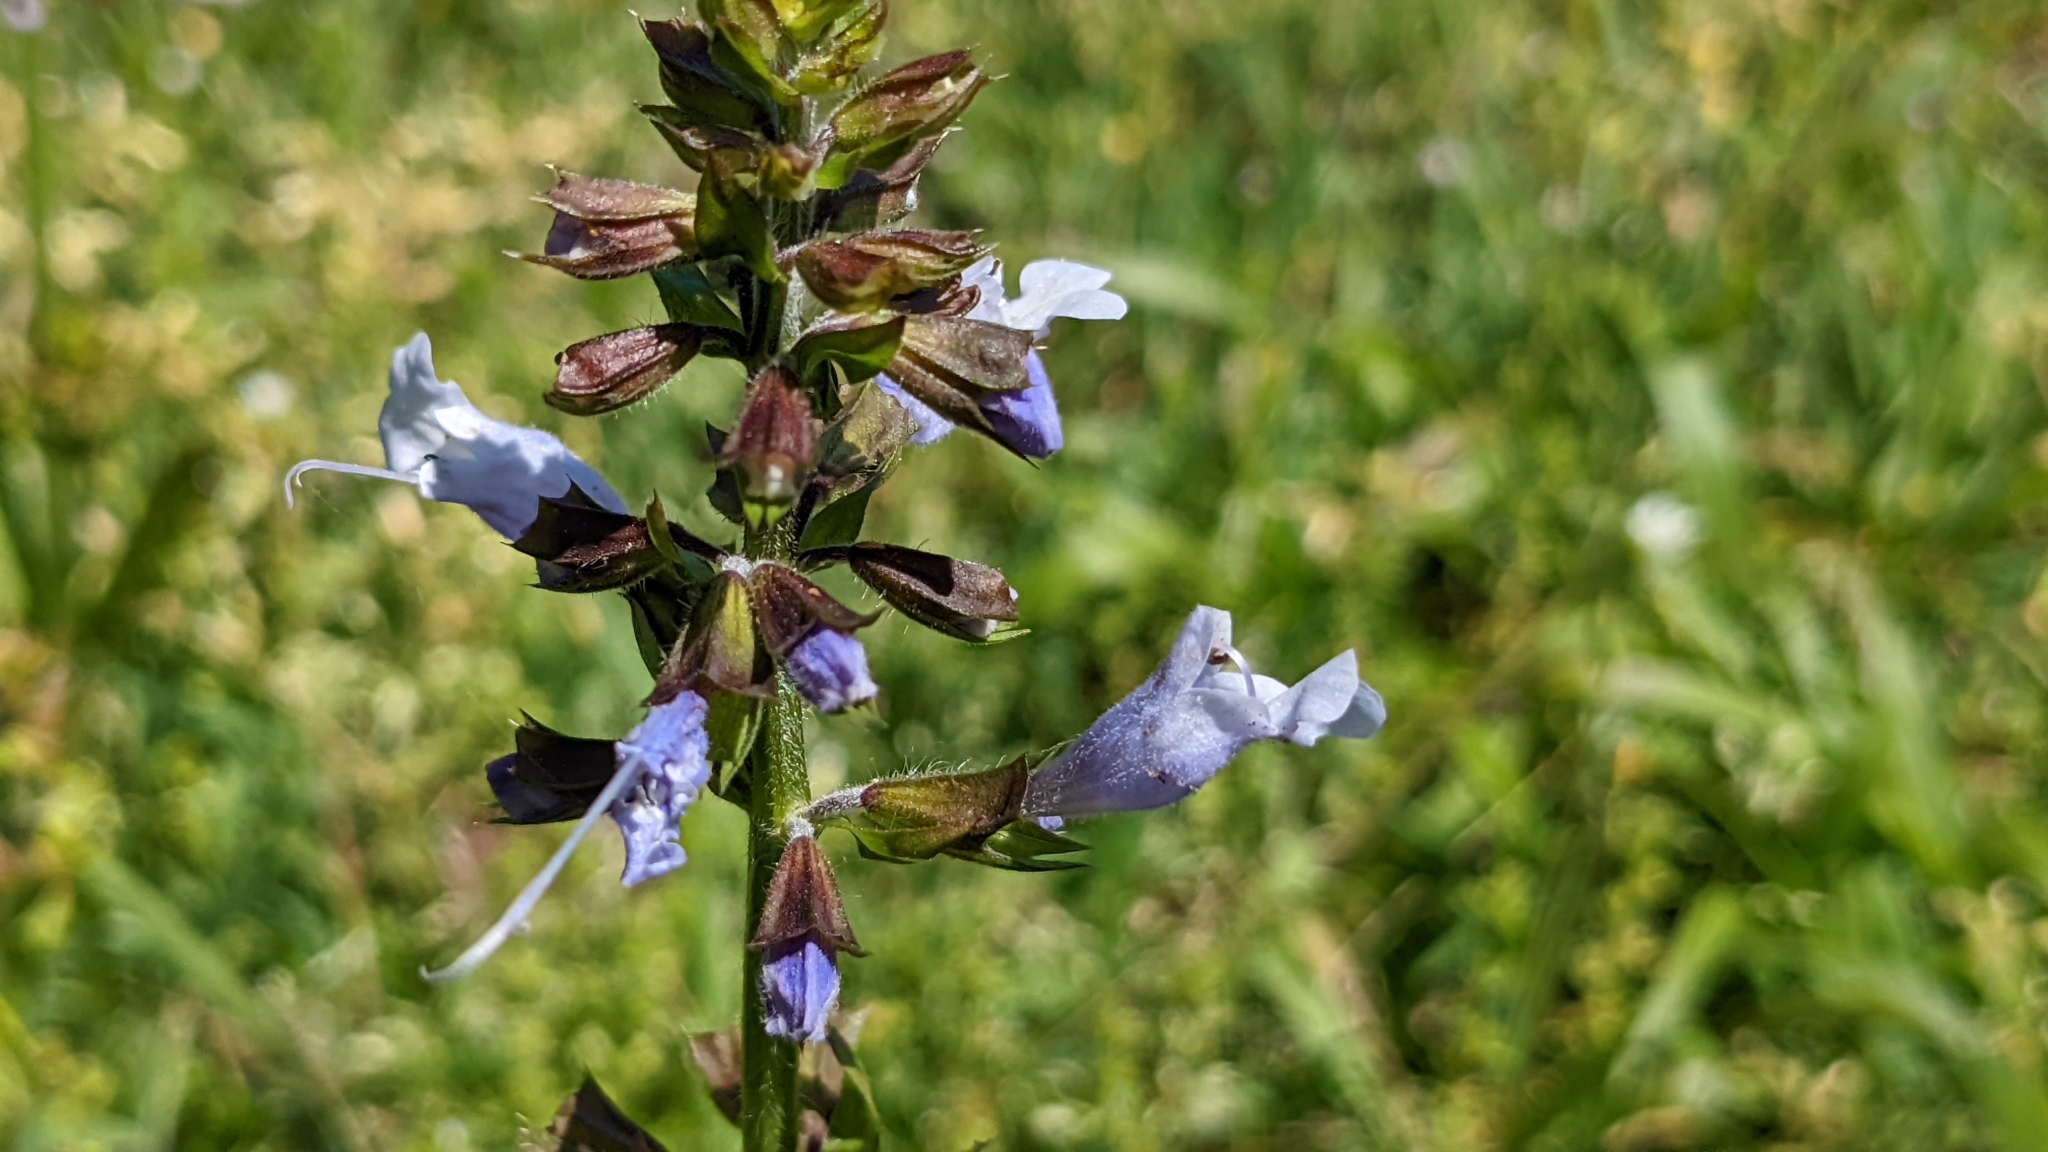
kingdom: Plantae
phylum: Tracheophyta
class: Magnoliopsida
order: Lamiales
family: Lamiaceae
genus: Salvia
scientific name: Salvia lyrata
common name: Cancerweed
